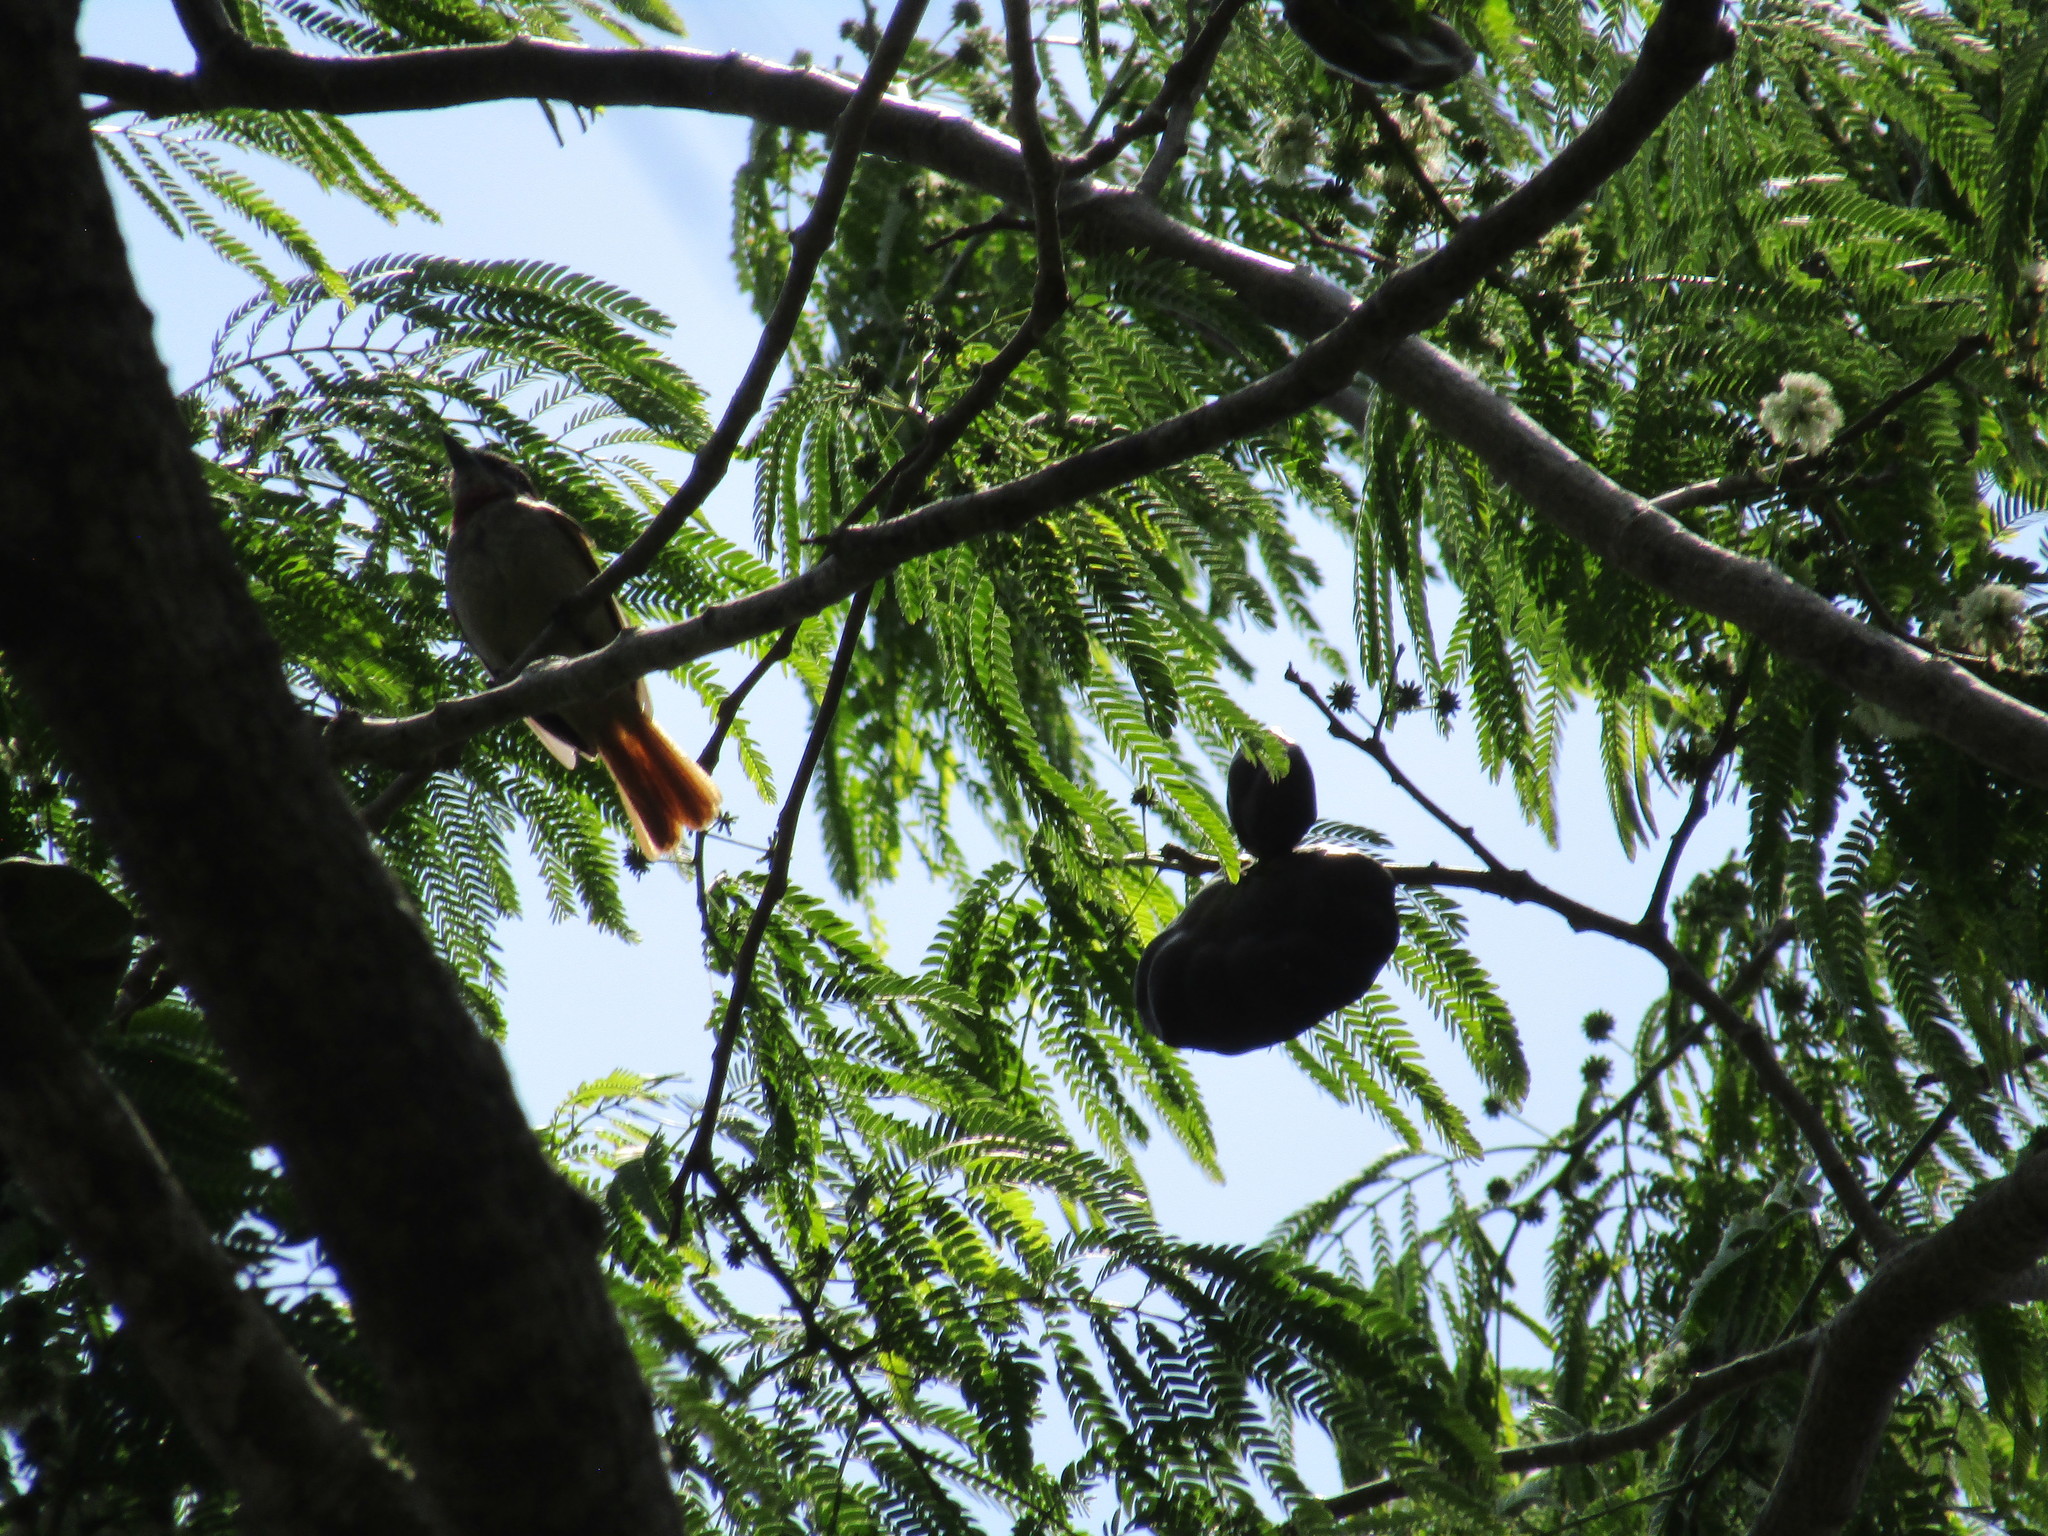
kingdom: Animalia
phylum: Chordata
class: Aves
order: Passeriformes
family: Cotingidae
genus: Pachyramphus
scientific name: Pachyramphus aglaiae
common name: Rose-throated becard
